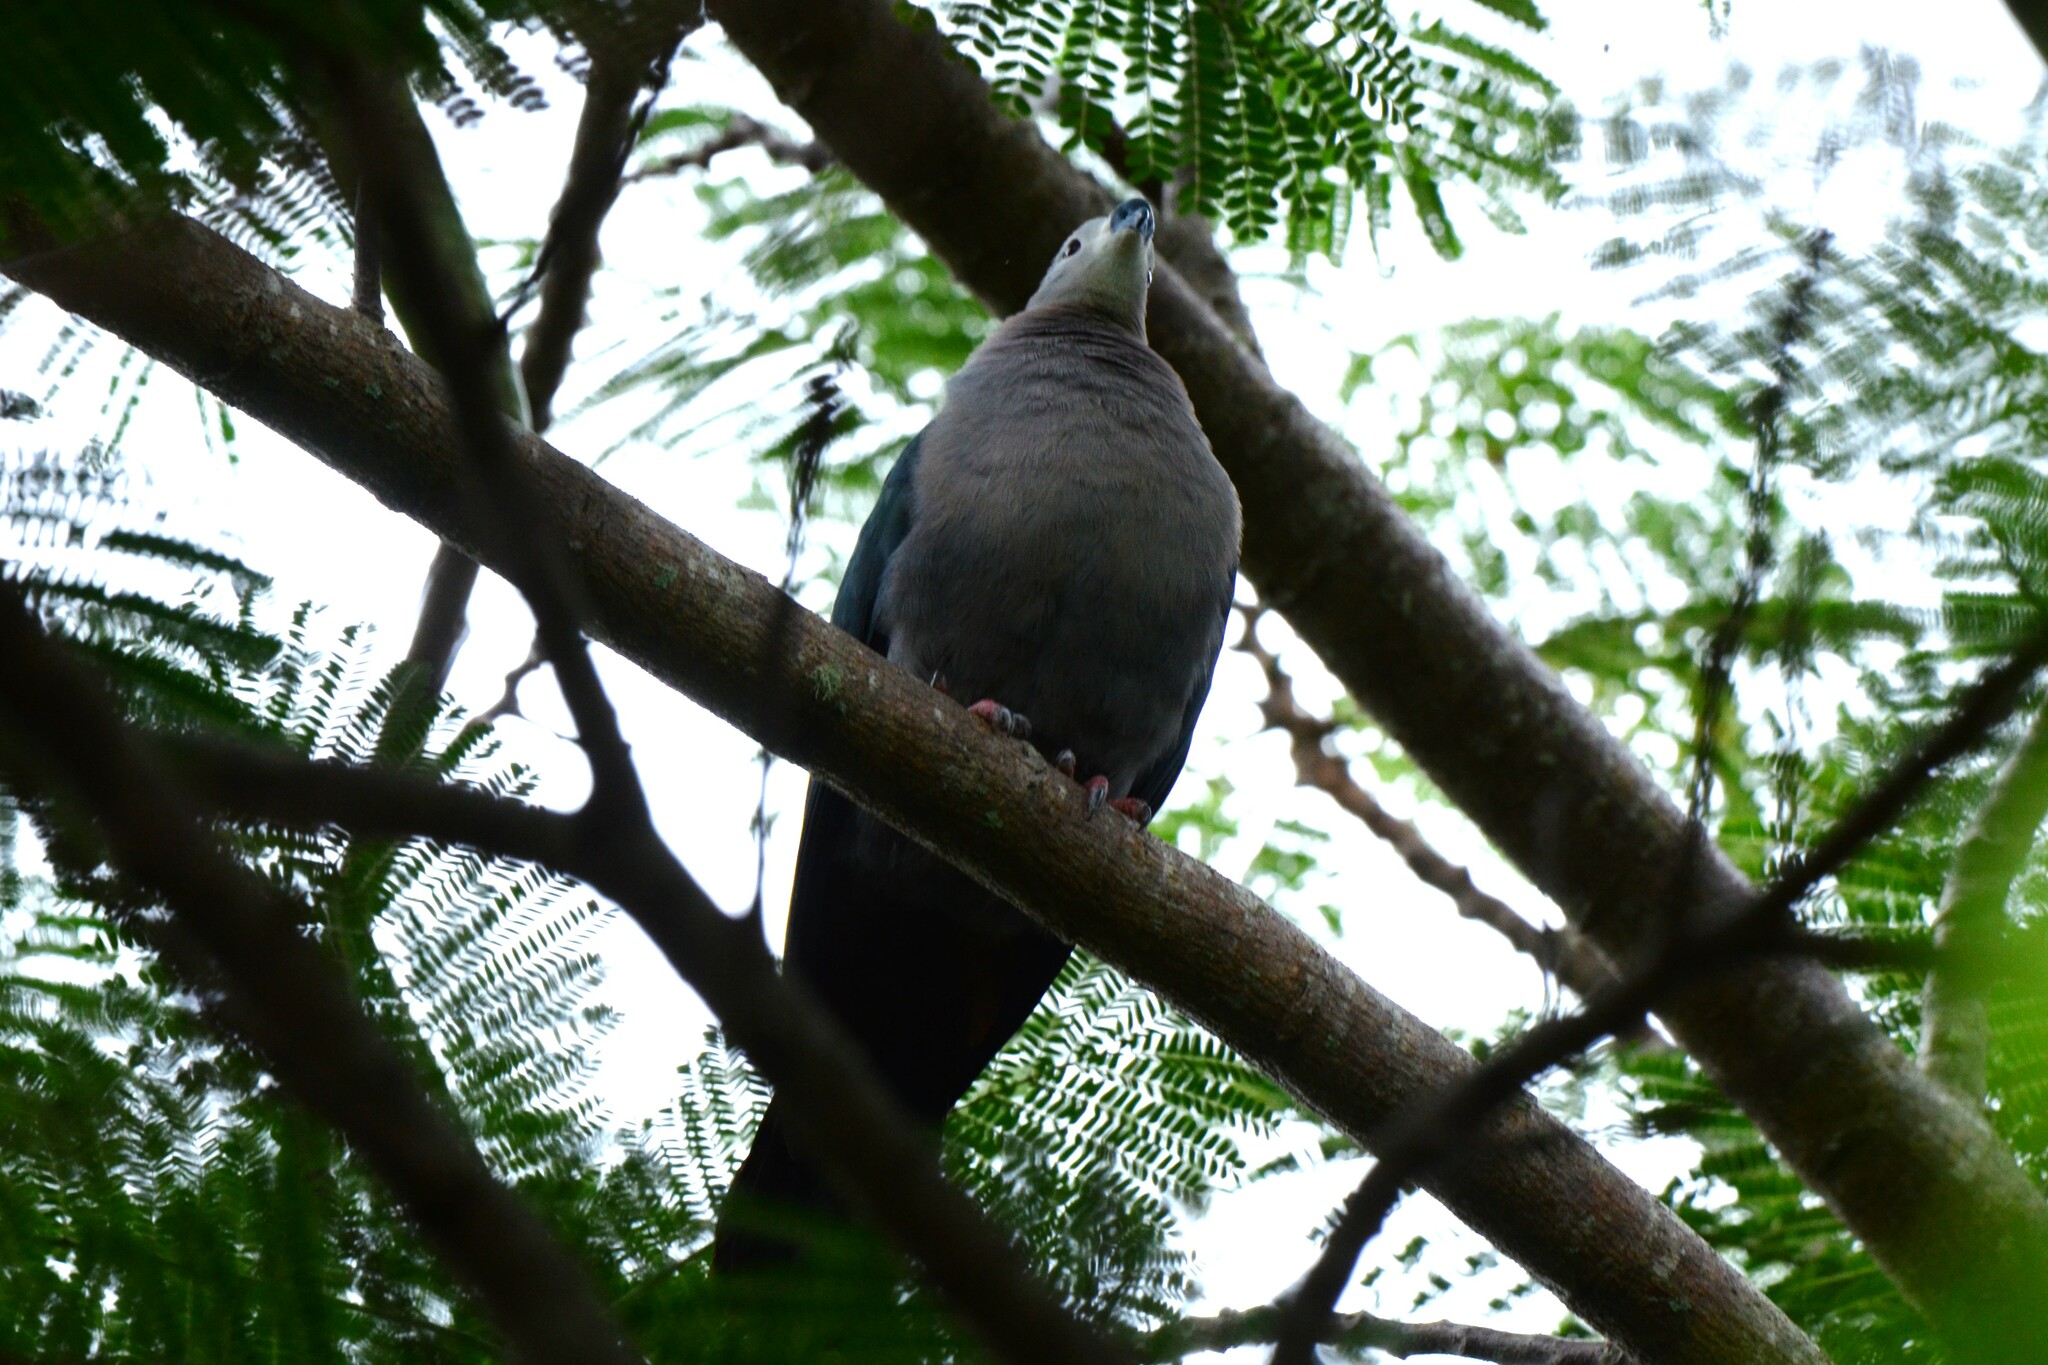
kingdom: Animalia
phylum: Chordata
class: Aves
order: Columbiformes
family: Columbidae
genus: Ducula
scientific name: Ducula pacifica
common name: Pacific imperial-pigeon
